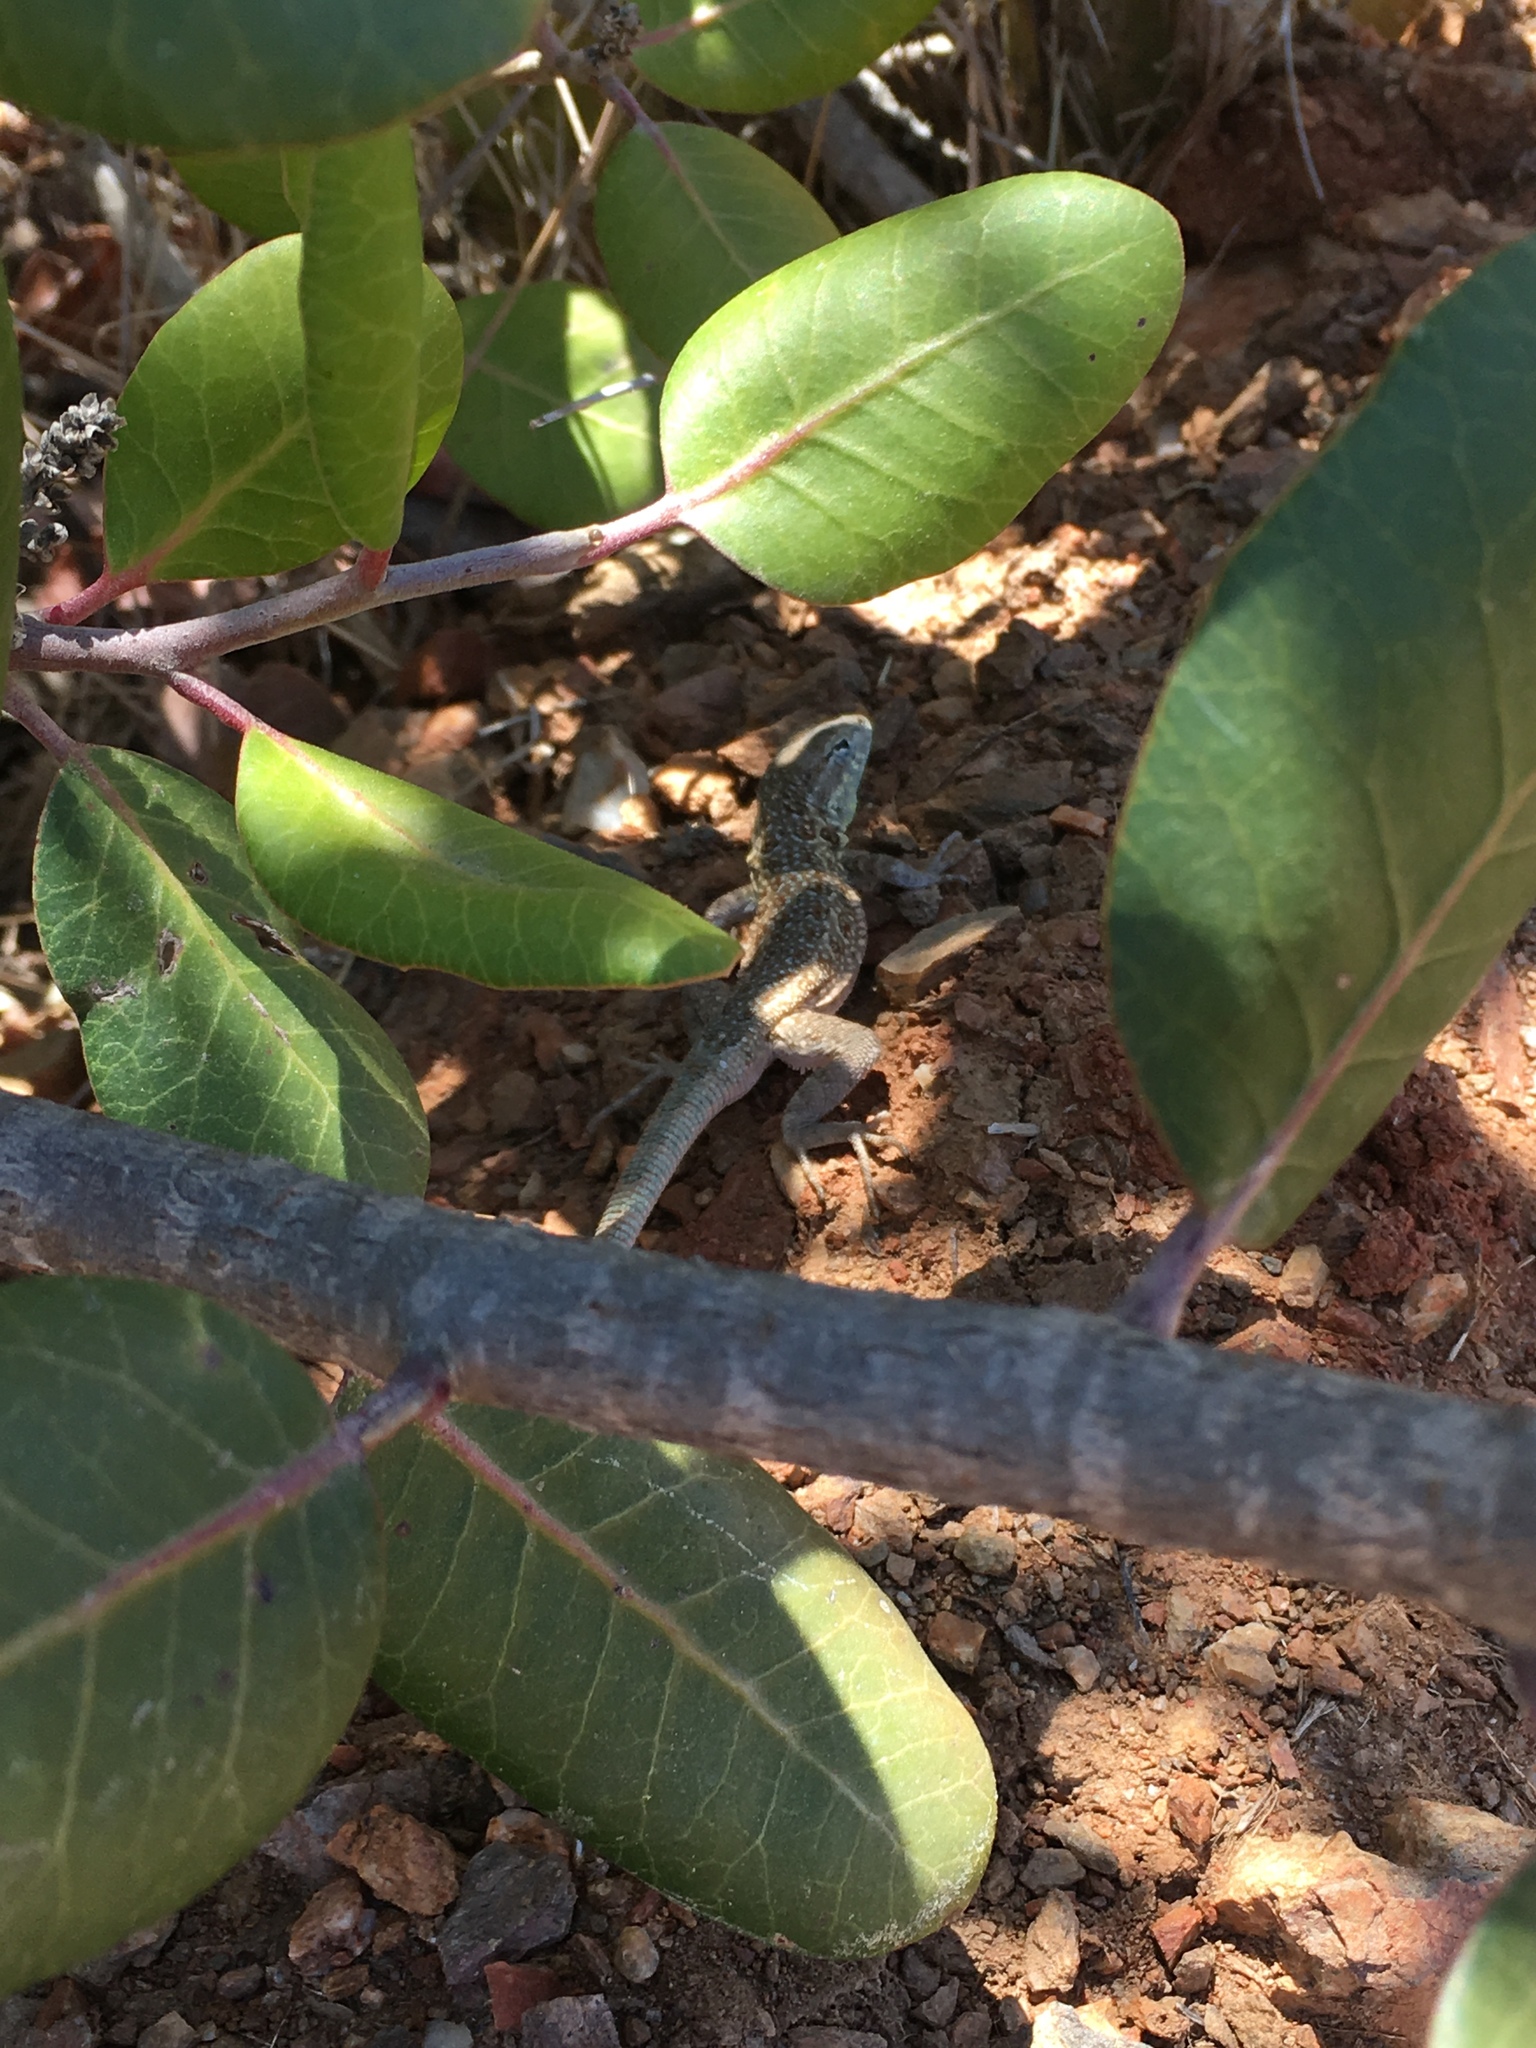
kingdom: Animalia
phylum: Chordata
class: Squamata
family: Phrynosomatidae
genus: Uta
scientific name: Uta stansburiana
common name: Side-blotched lizard
